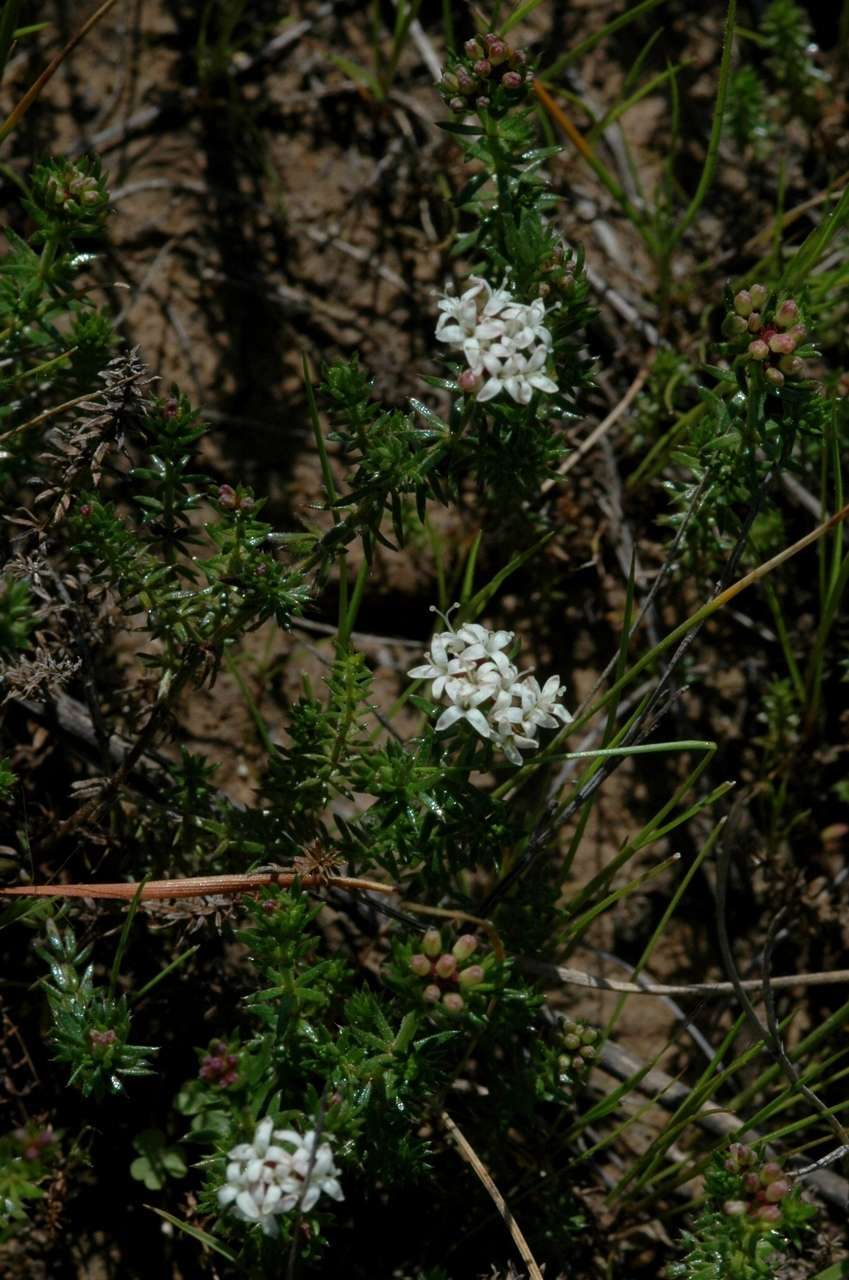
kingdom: Plantae
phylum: Tracheophyta
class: Magnoliopsida
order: Gentianales
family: Rubiaceae
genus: Asperula
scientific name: Asperula conferta
